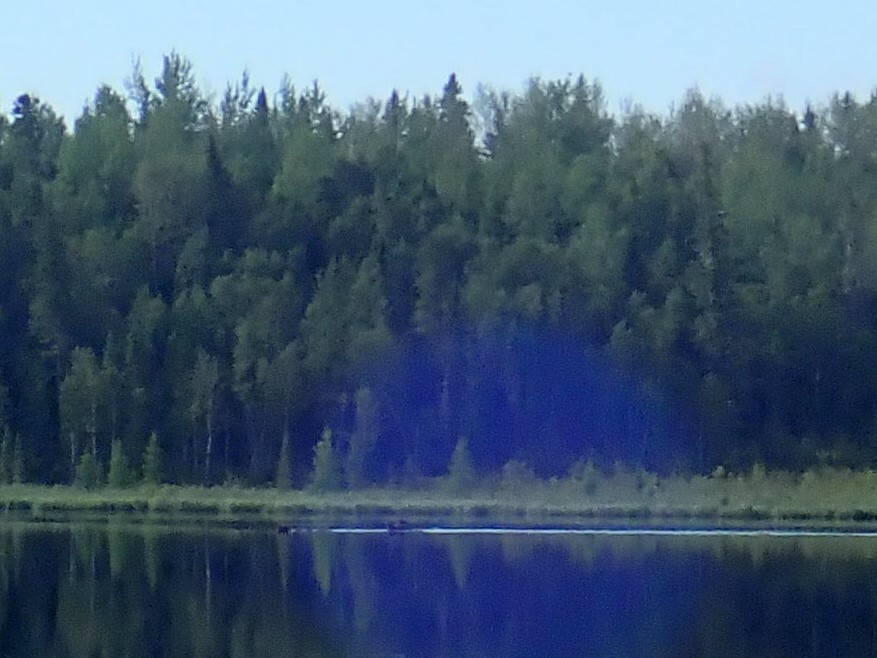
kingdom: Animalia
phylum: Chordata
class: Mammalia
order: Artiodactyla
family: Cervidae
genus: Alces
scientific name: Alces alces
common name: Moose
